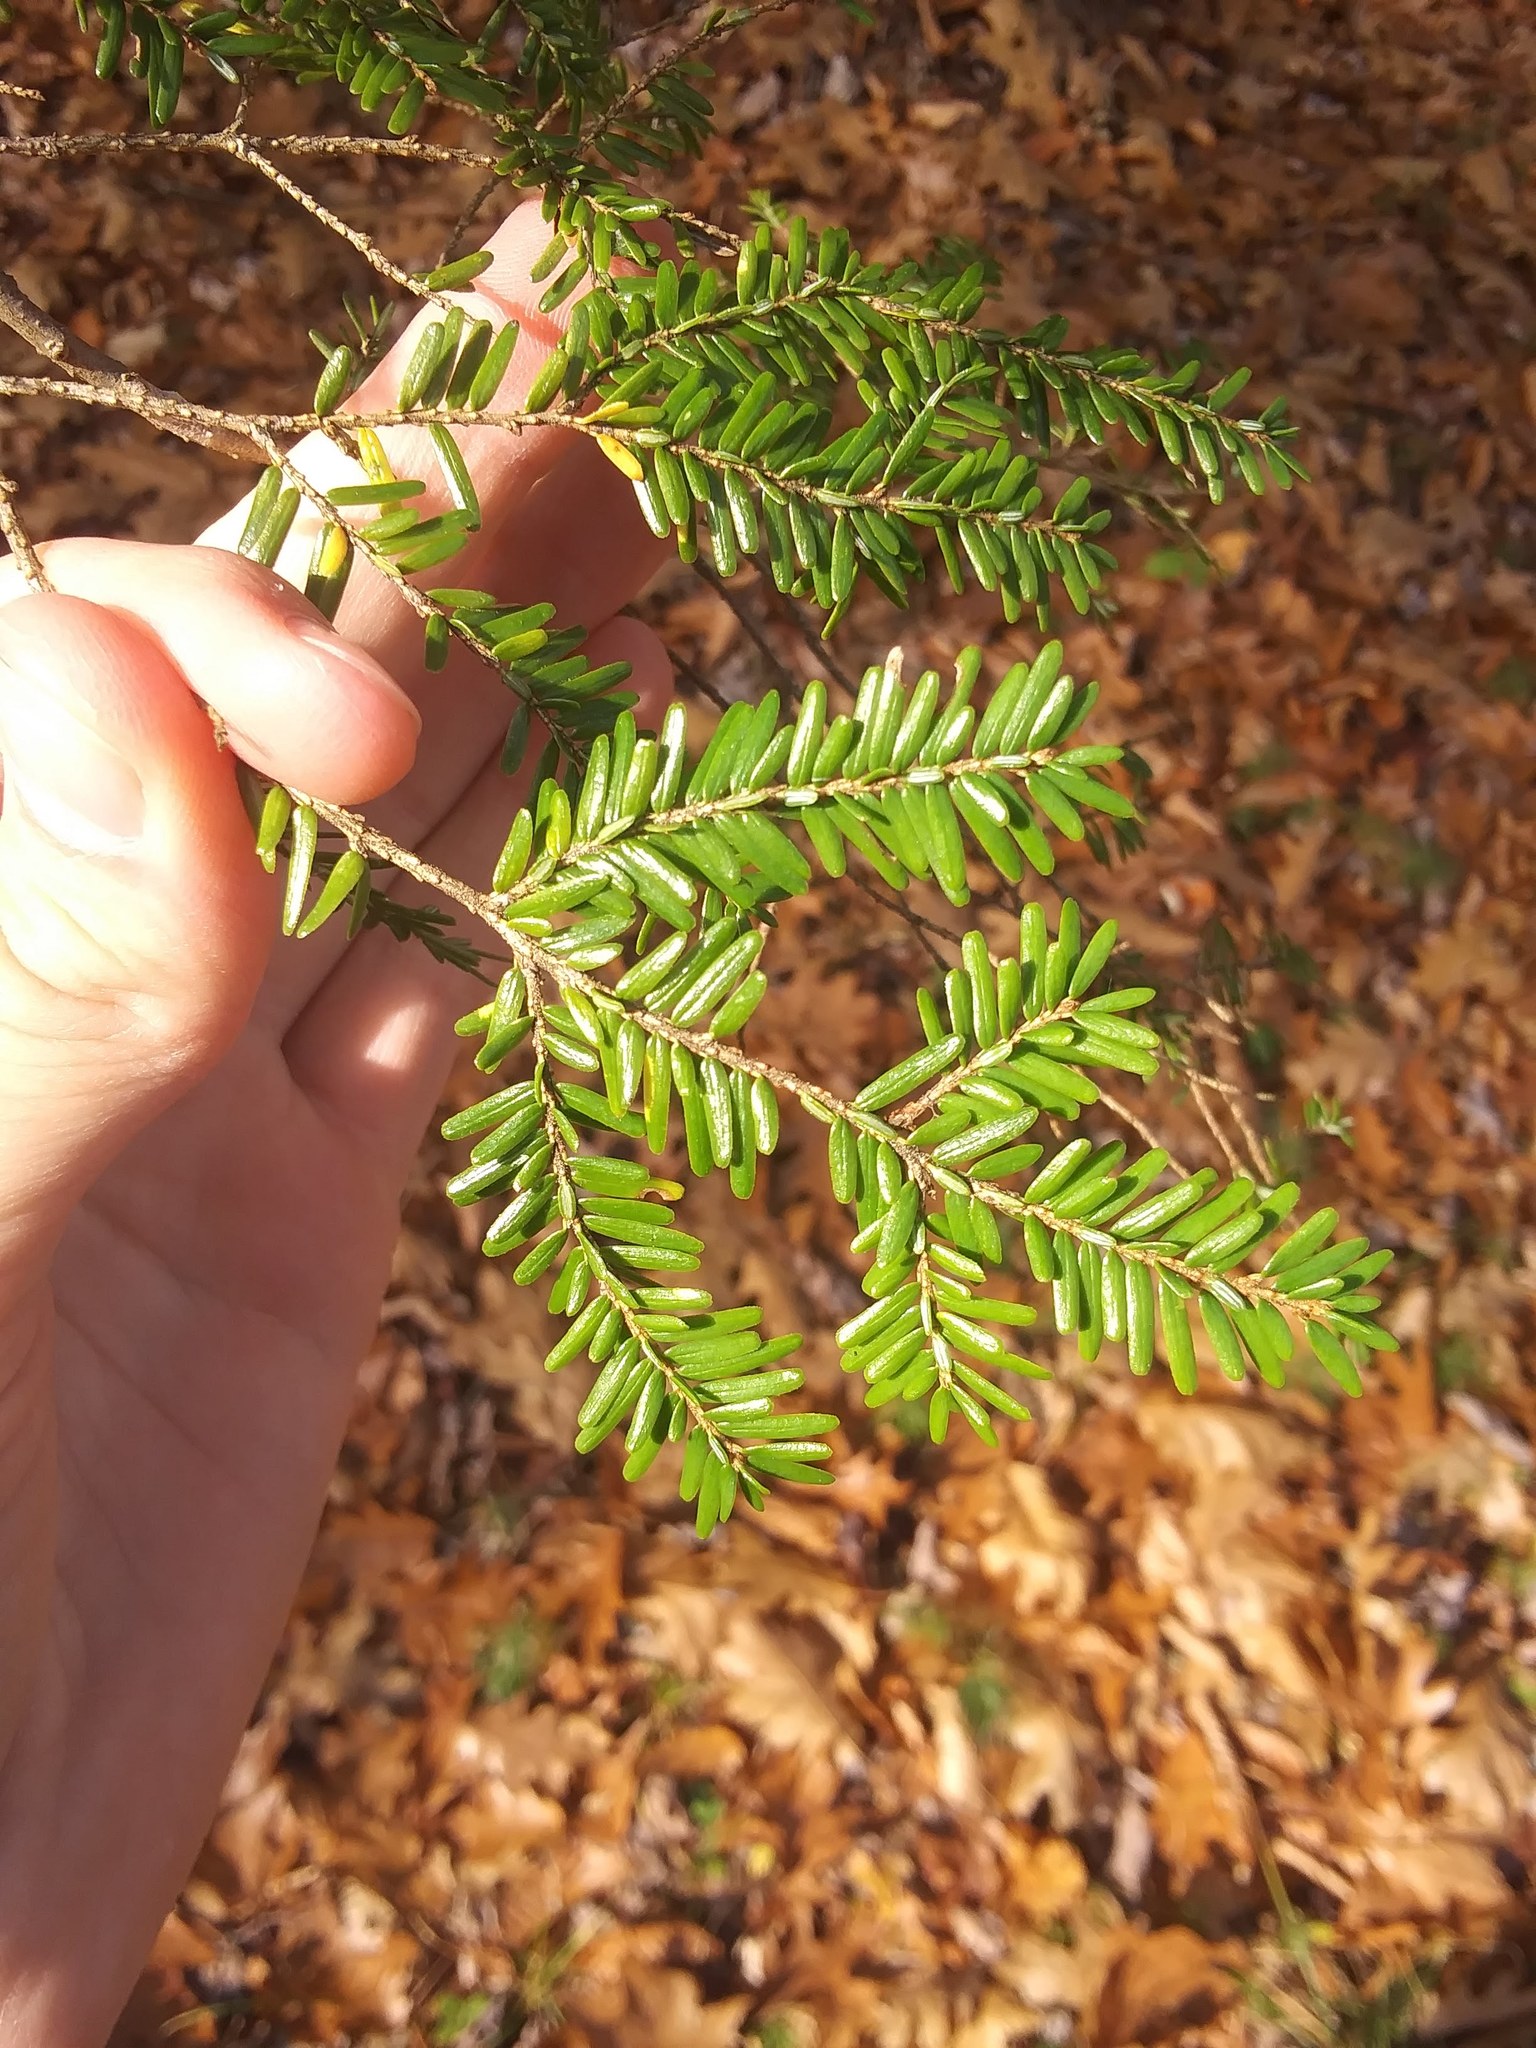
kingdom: Plantae
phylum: Tracheophyta
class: Pinopsida
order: Pinales
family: Pinaceae
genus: Tsuga
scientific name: Tsuga canadensis
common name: Eastern hemlock
